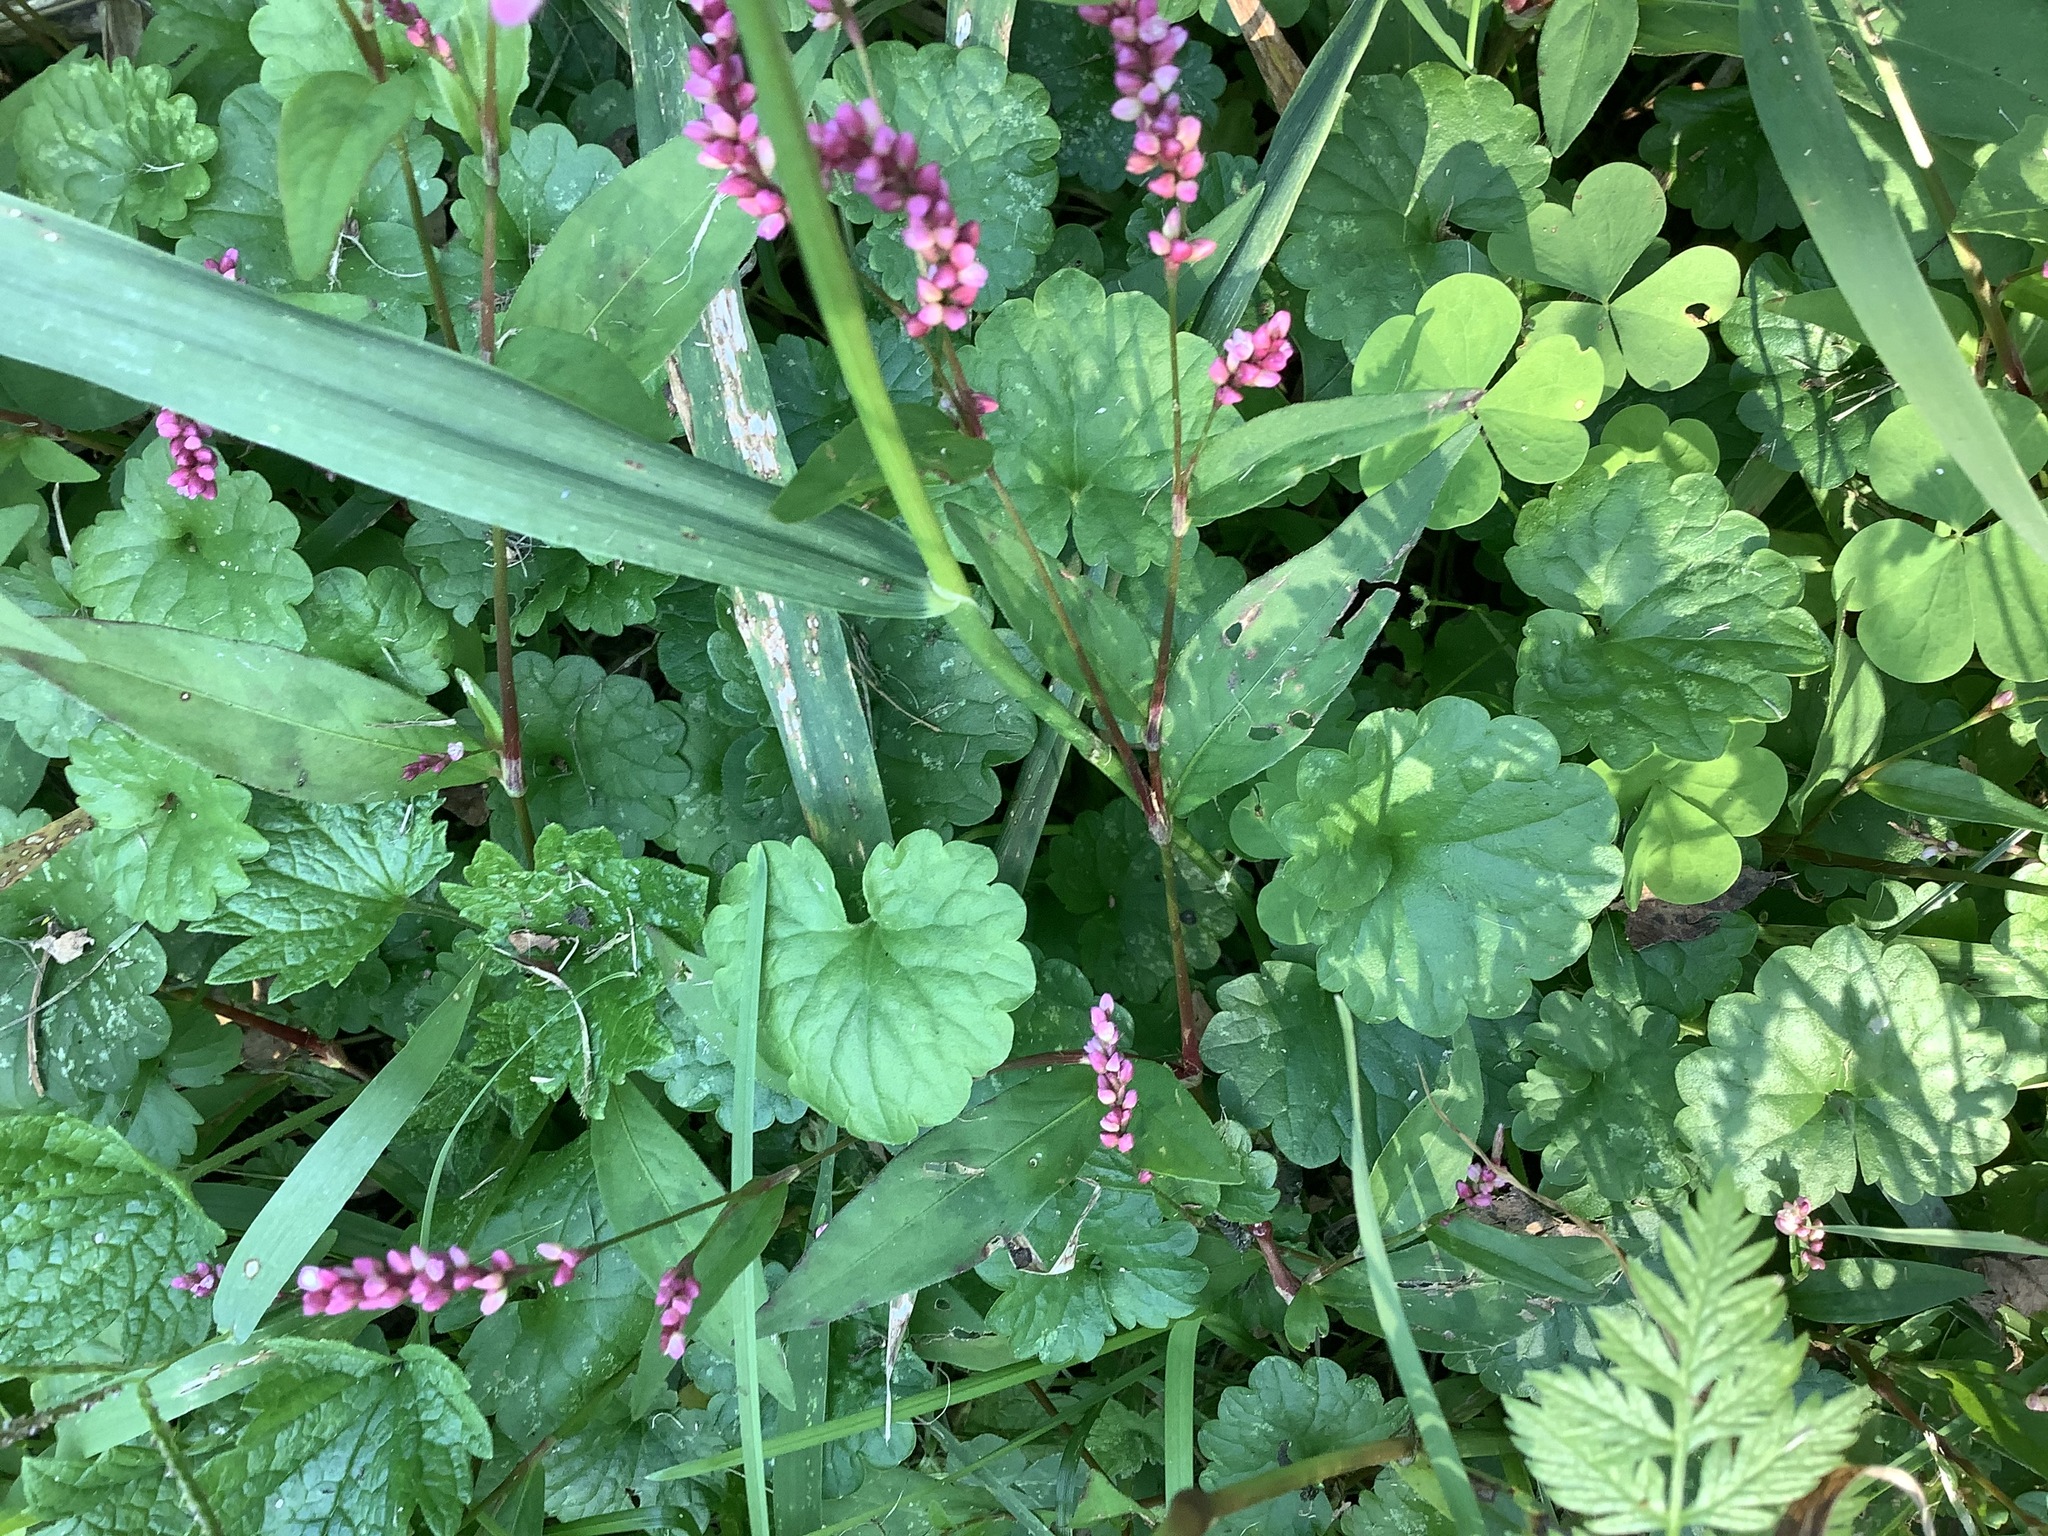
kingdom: Plantae
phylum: Tracheophyta
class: Magnoliopsida
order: Lamiales
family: Lamiaceae
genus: Glechoma
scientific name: Glechoma hederacea
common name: Ground ivy
